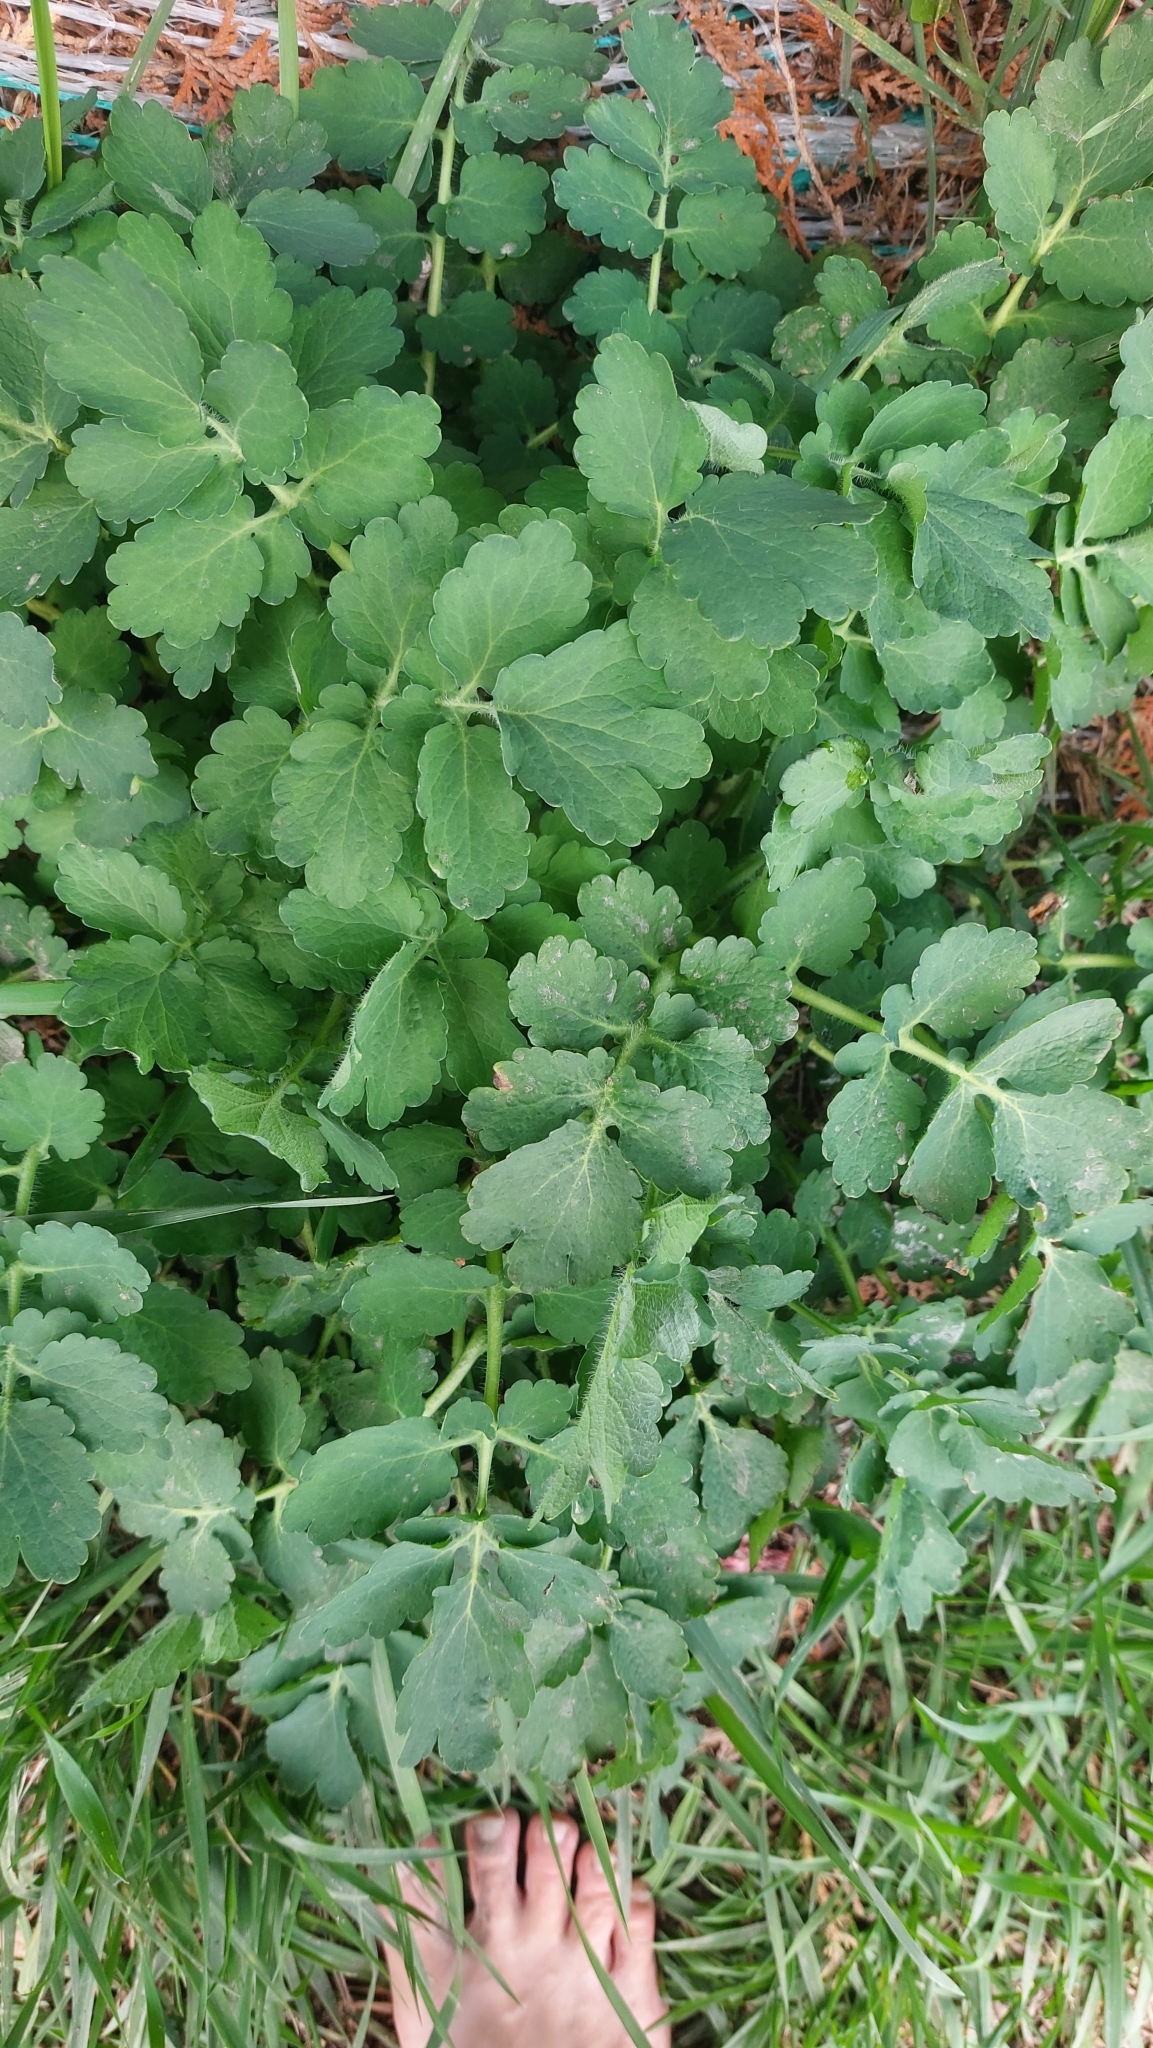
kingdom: Plantae
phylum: Tracheophyta
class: Magnoliopsida
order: Ranunculales
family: Papaveraceae
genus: Chelidonium
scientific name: Chelidonium majus
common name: Greater celandine
